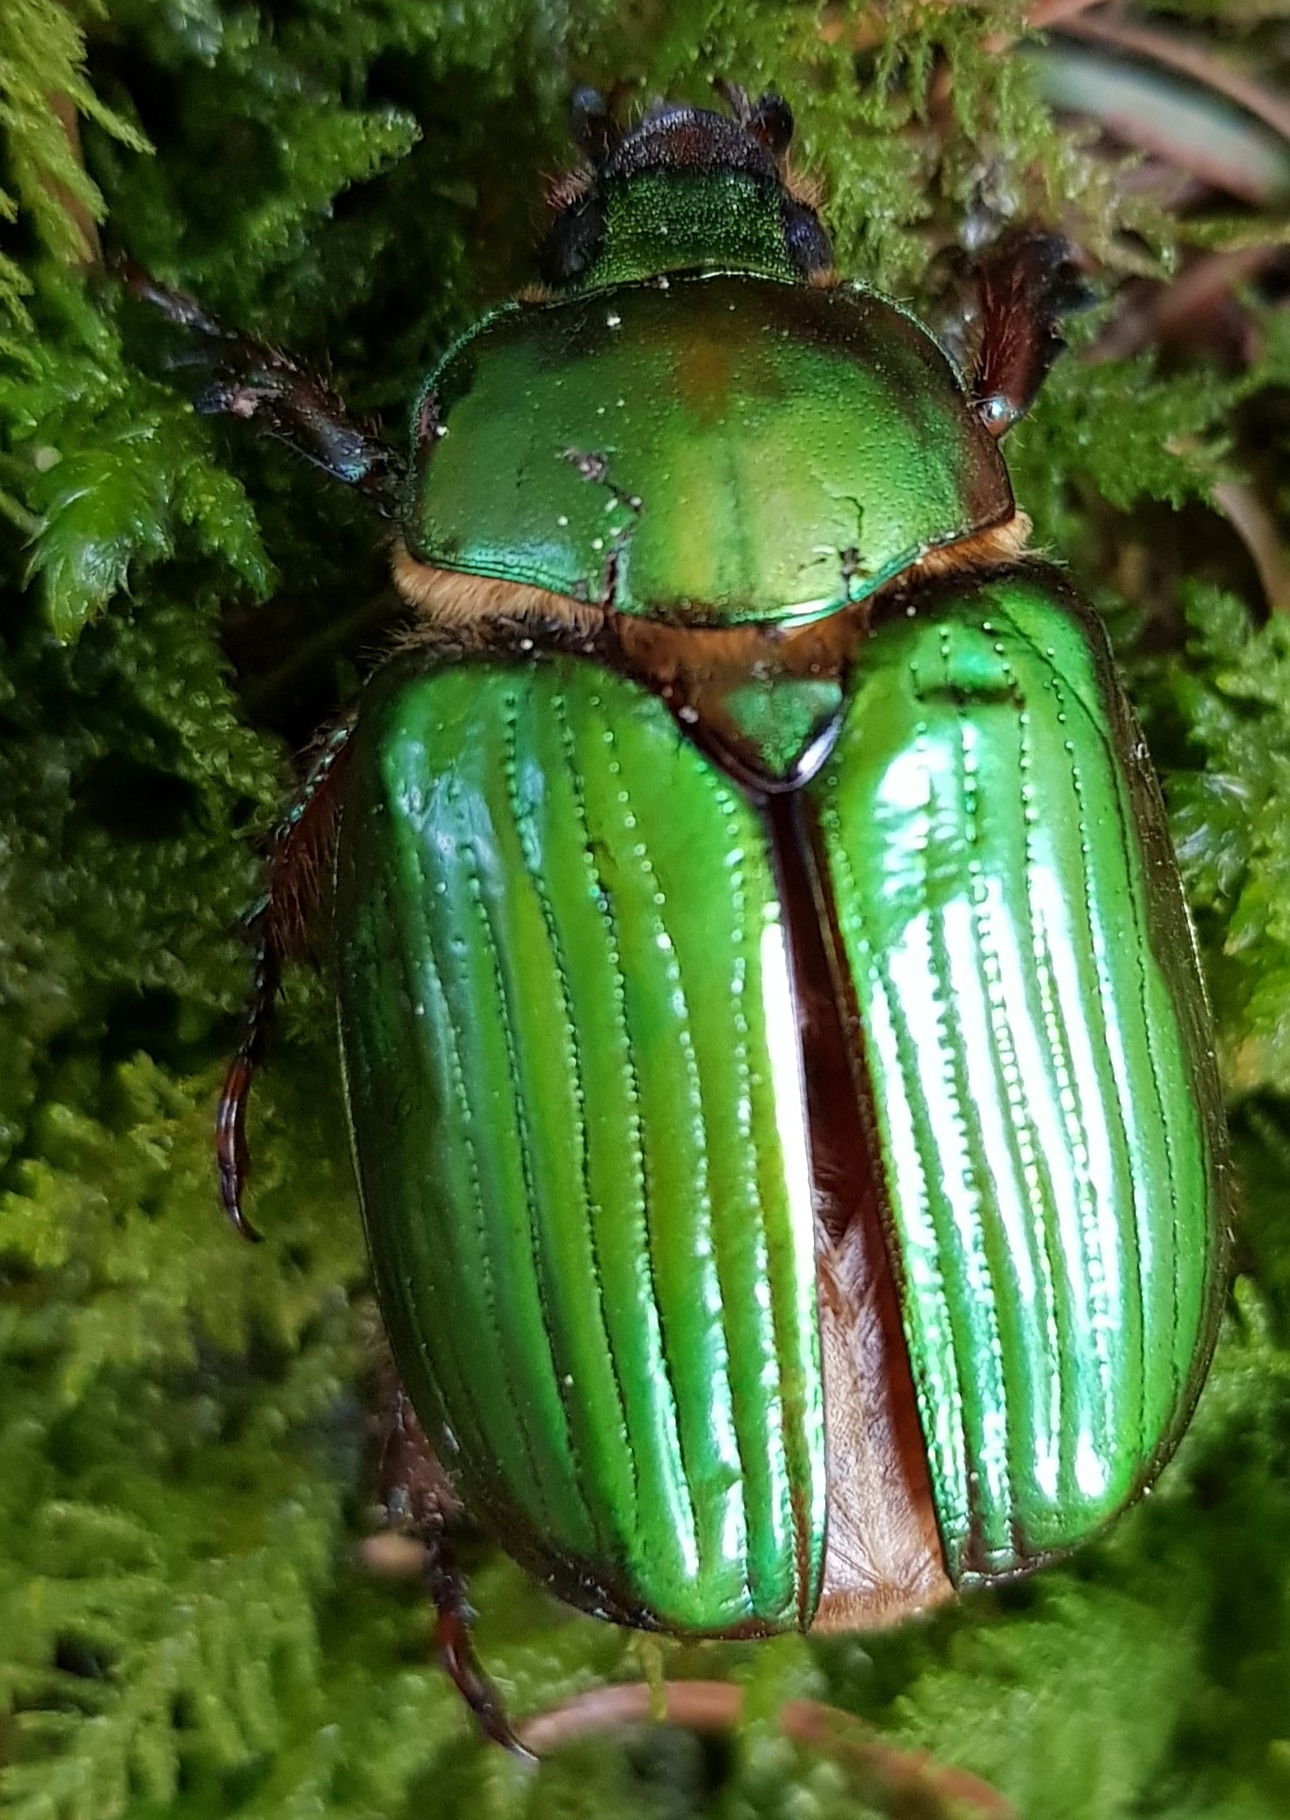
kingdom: Animalia
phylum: Arthropoda
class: Insecta
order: Coleoptera
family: Scarabaeidae
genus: Chrysina
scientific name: Chrysina orizabae
